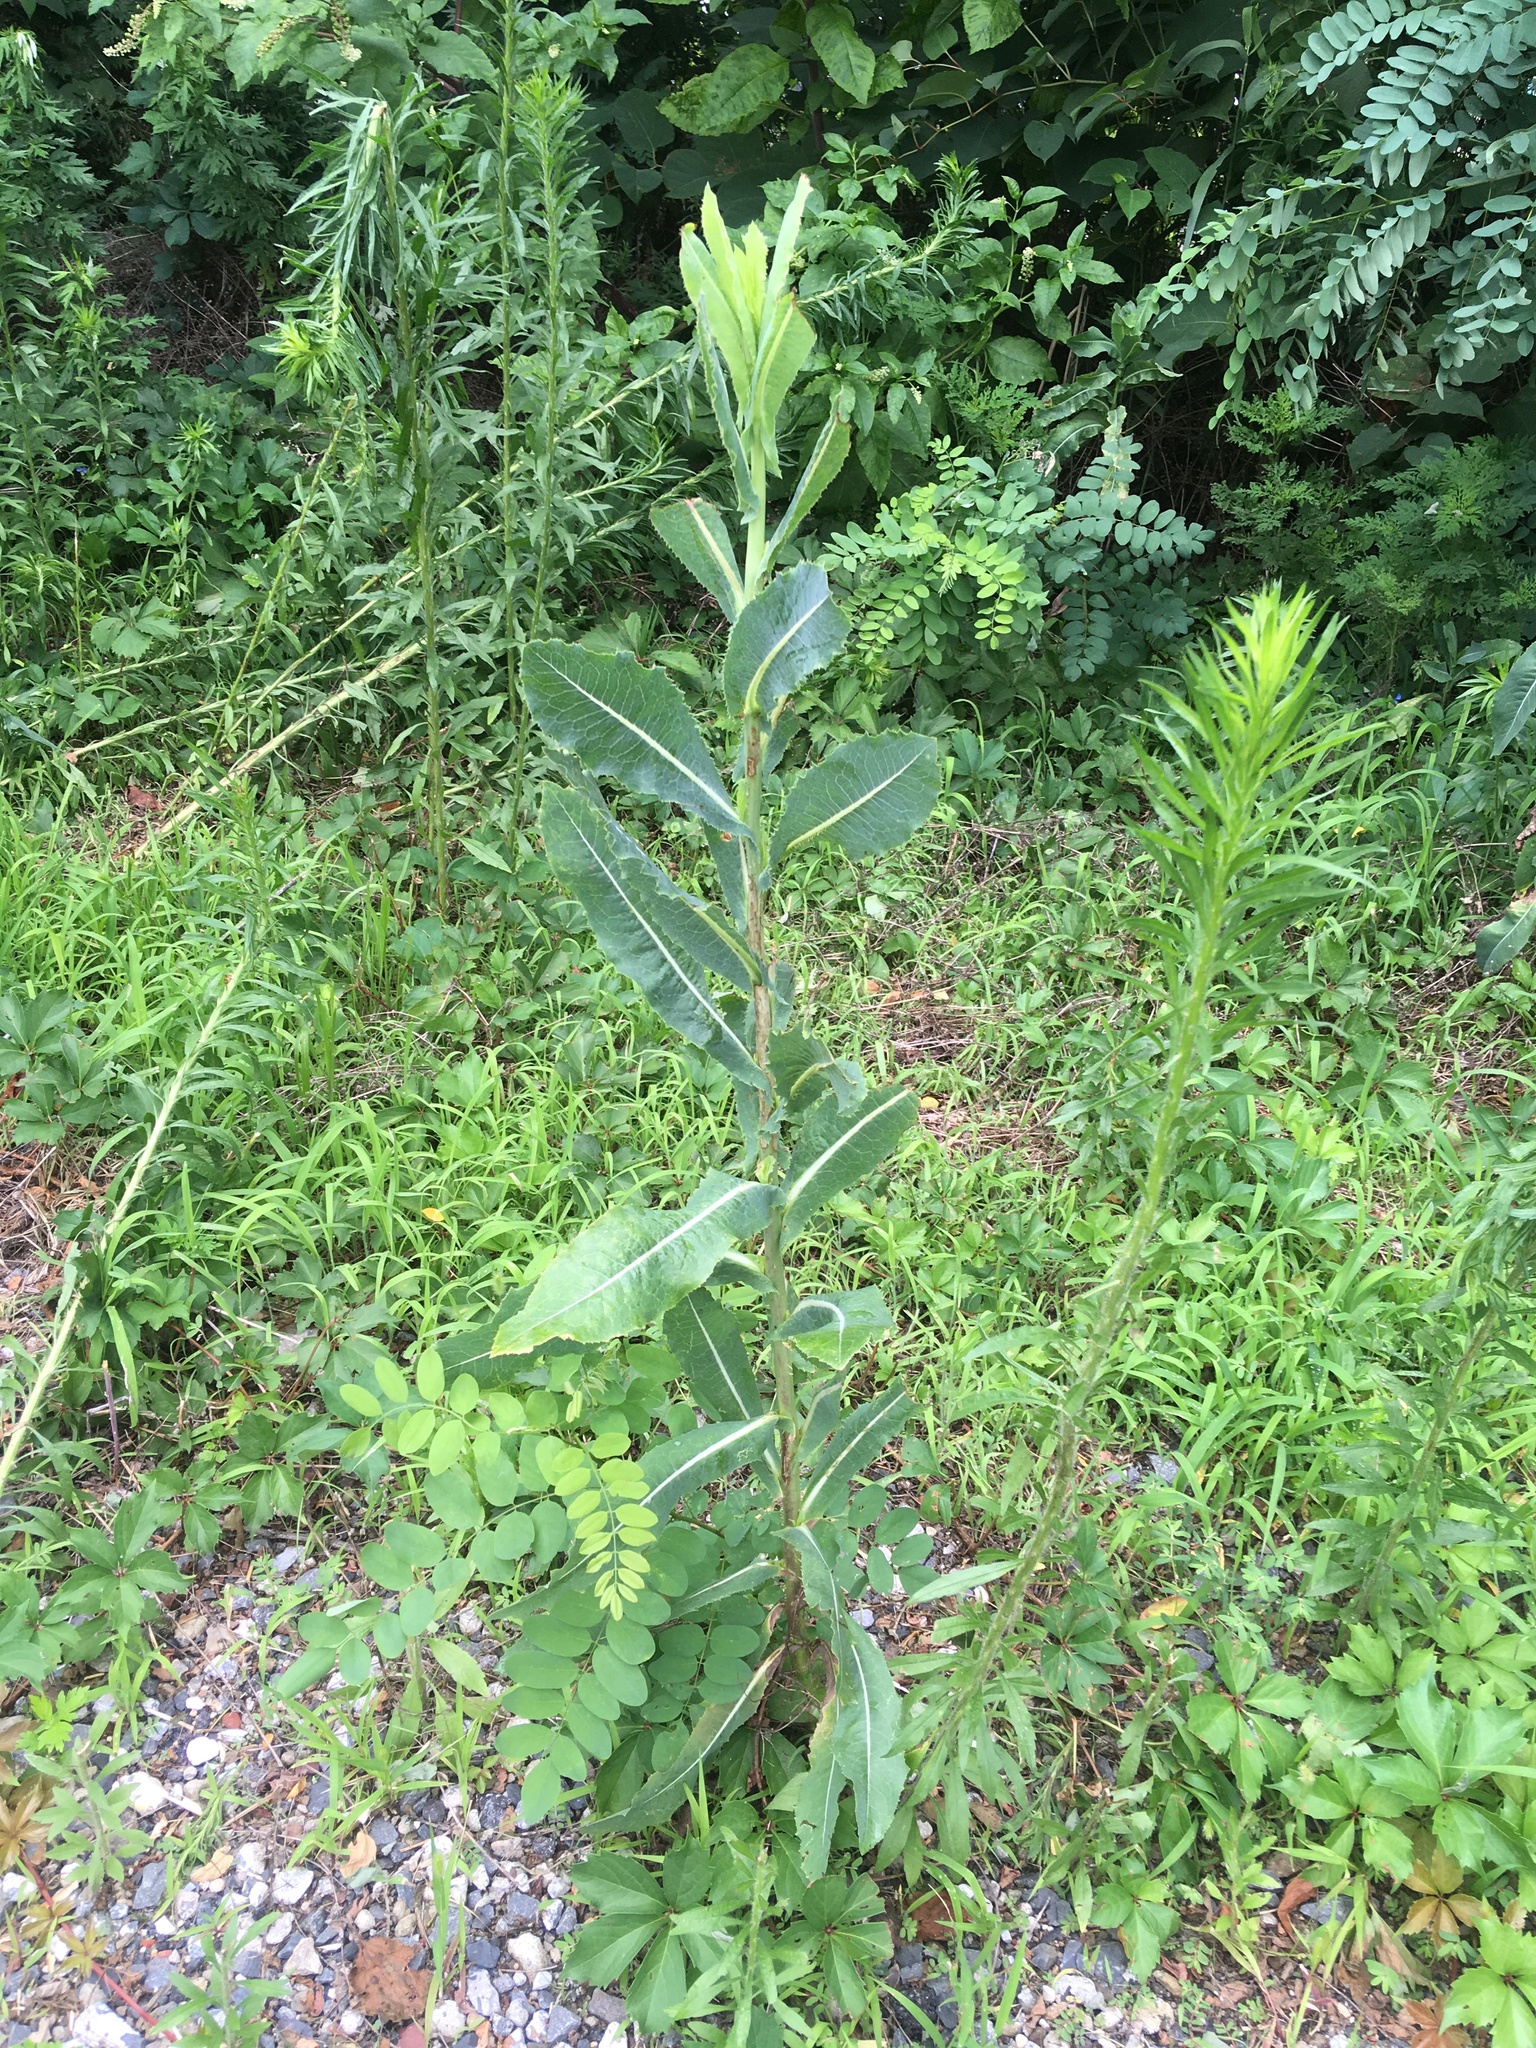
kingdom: Plantae
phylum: Tracheophyta
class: Magnoliopsida
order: Asterales
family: Asteraceae
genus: Lactuca
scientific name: Lactuca serriola
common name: Prickly lettuce
